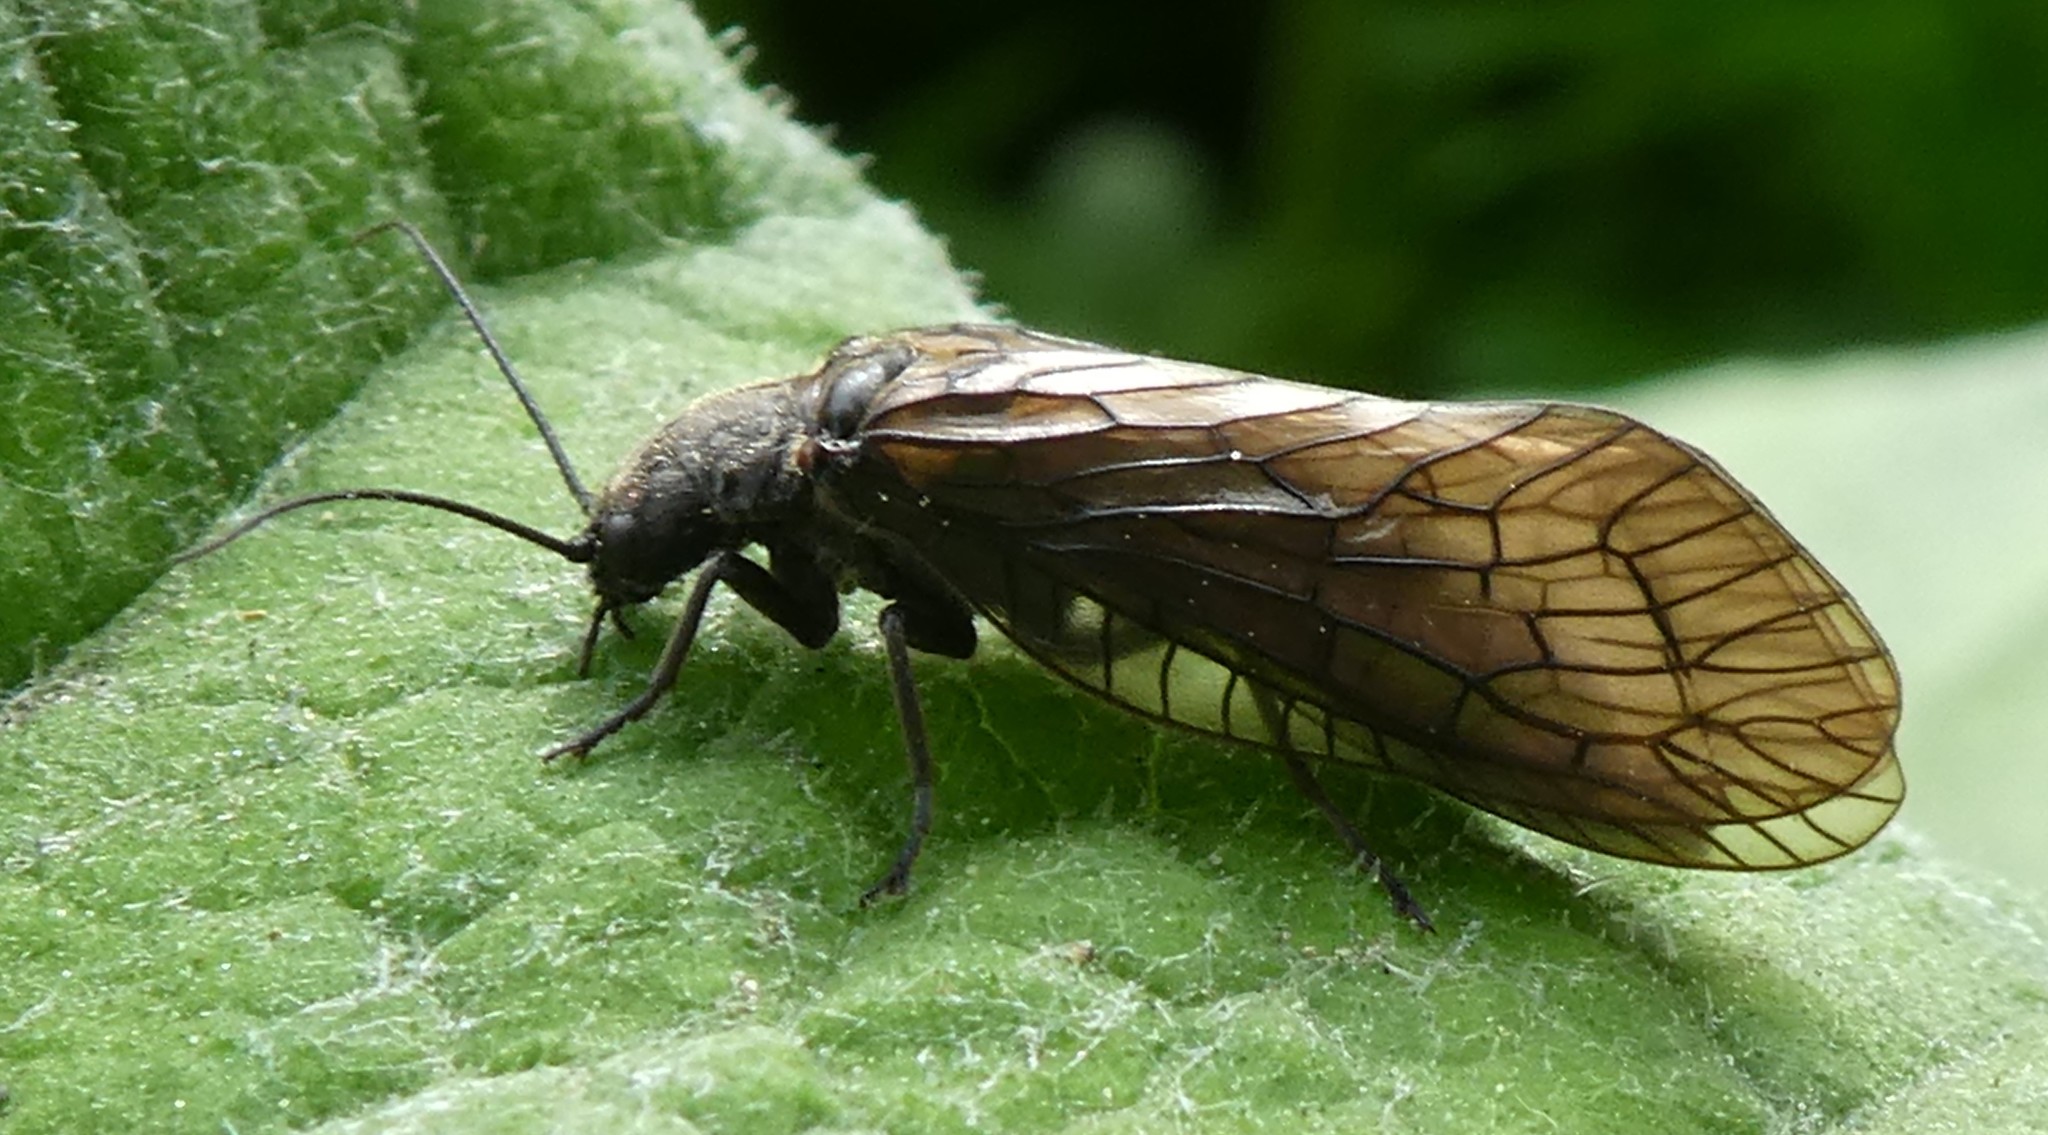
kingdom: Animalia
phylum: Arthropoda
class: Insecta
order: Megaloptera
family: Sialidae
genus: Sialis
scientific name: Sialis
